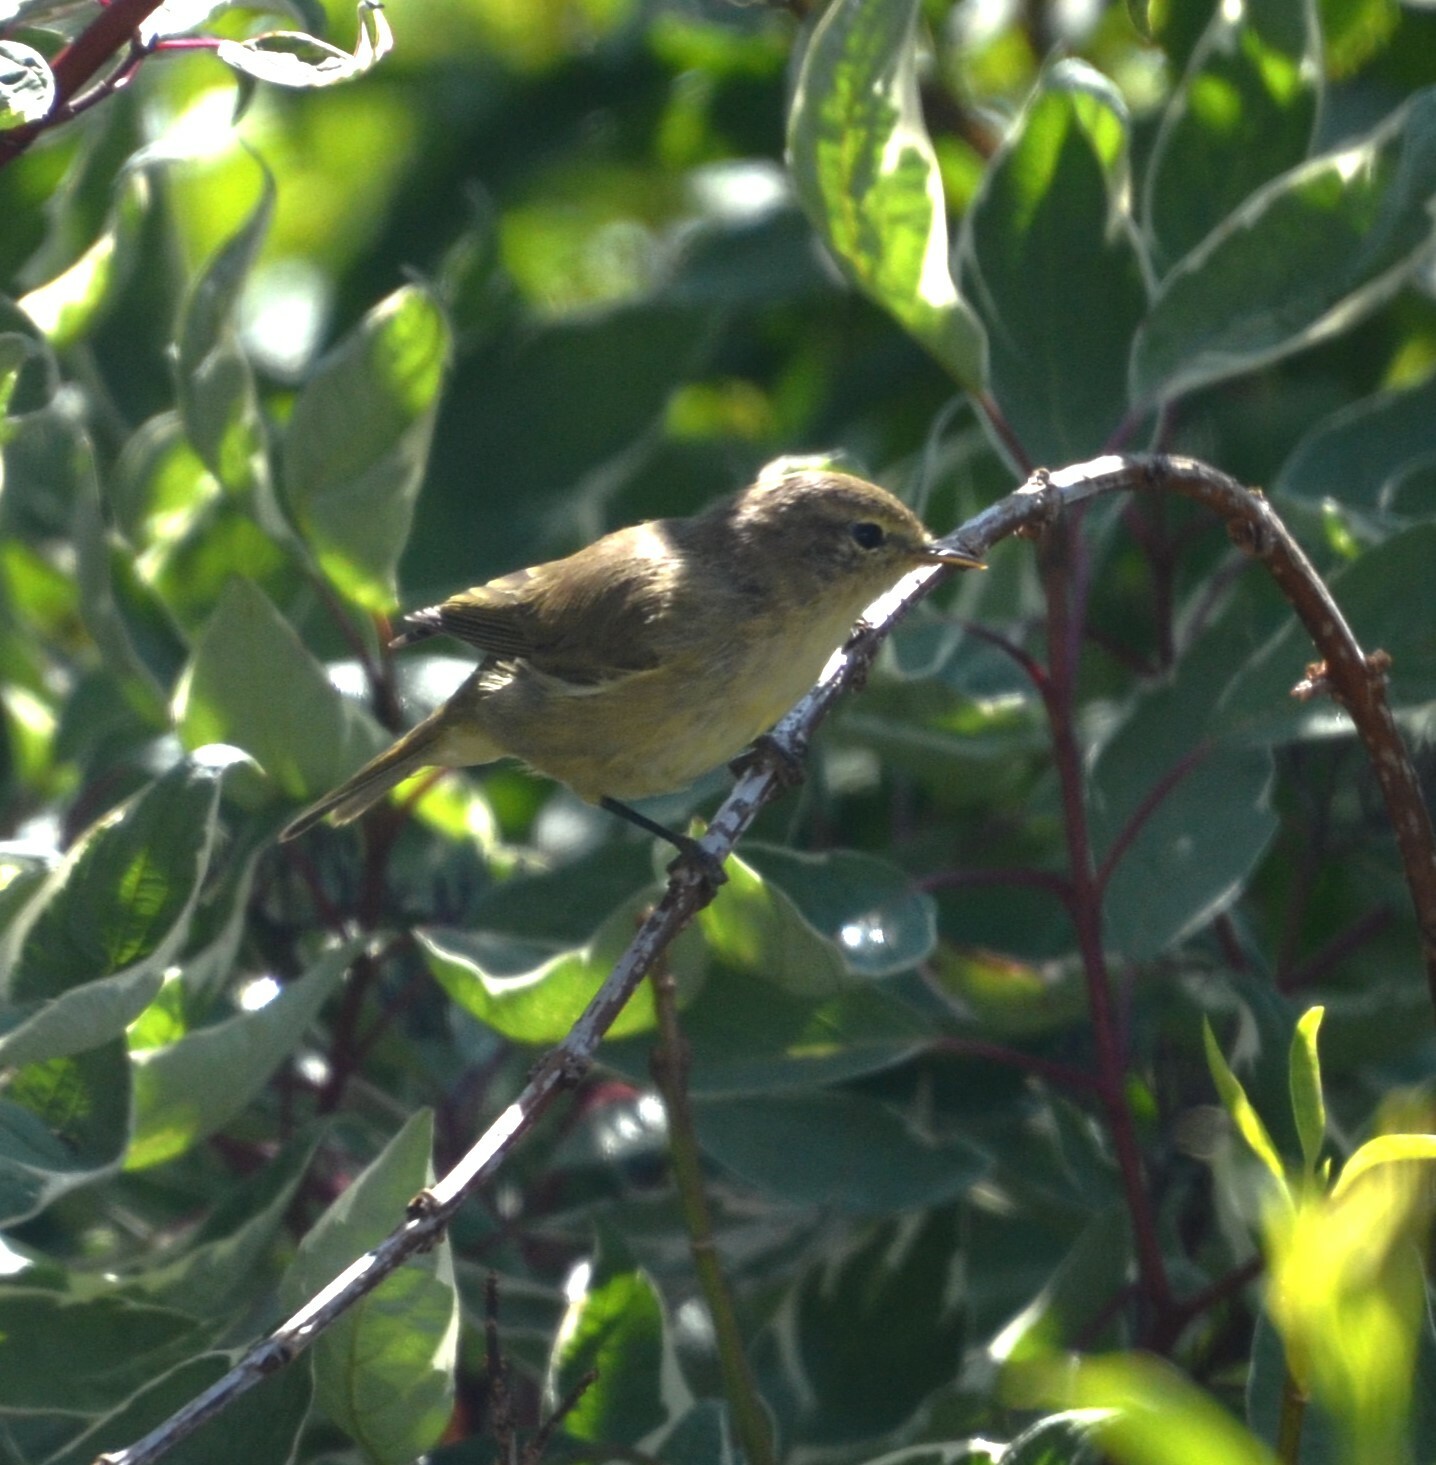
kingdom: Animalia
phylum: Chordata
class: Aves
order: Passeriformes
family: Phylloscopidae
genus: Phylloscopus
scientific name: Phylloscopus collybita
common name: Common chiffchaff
